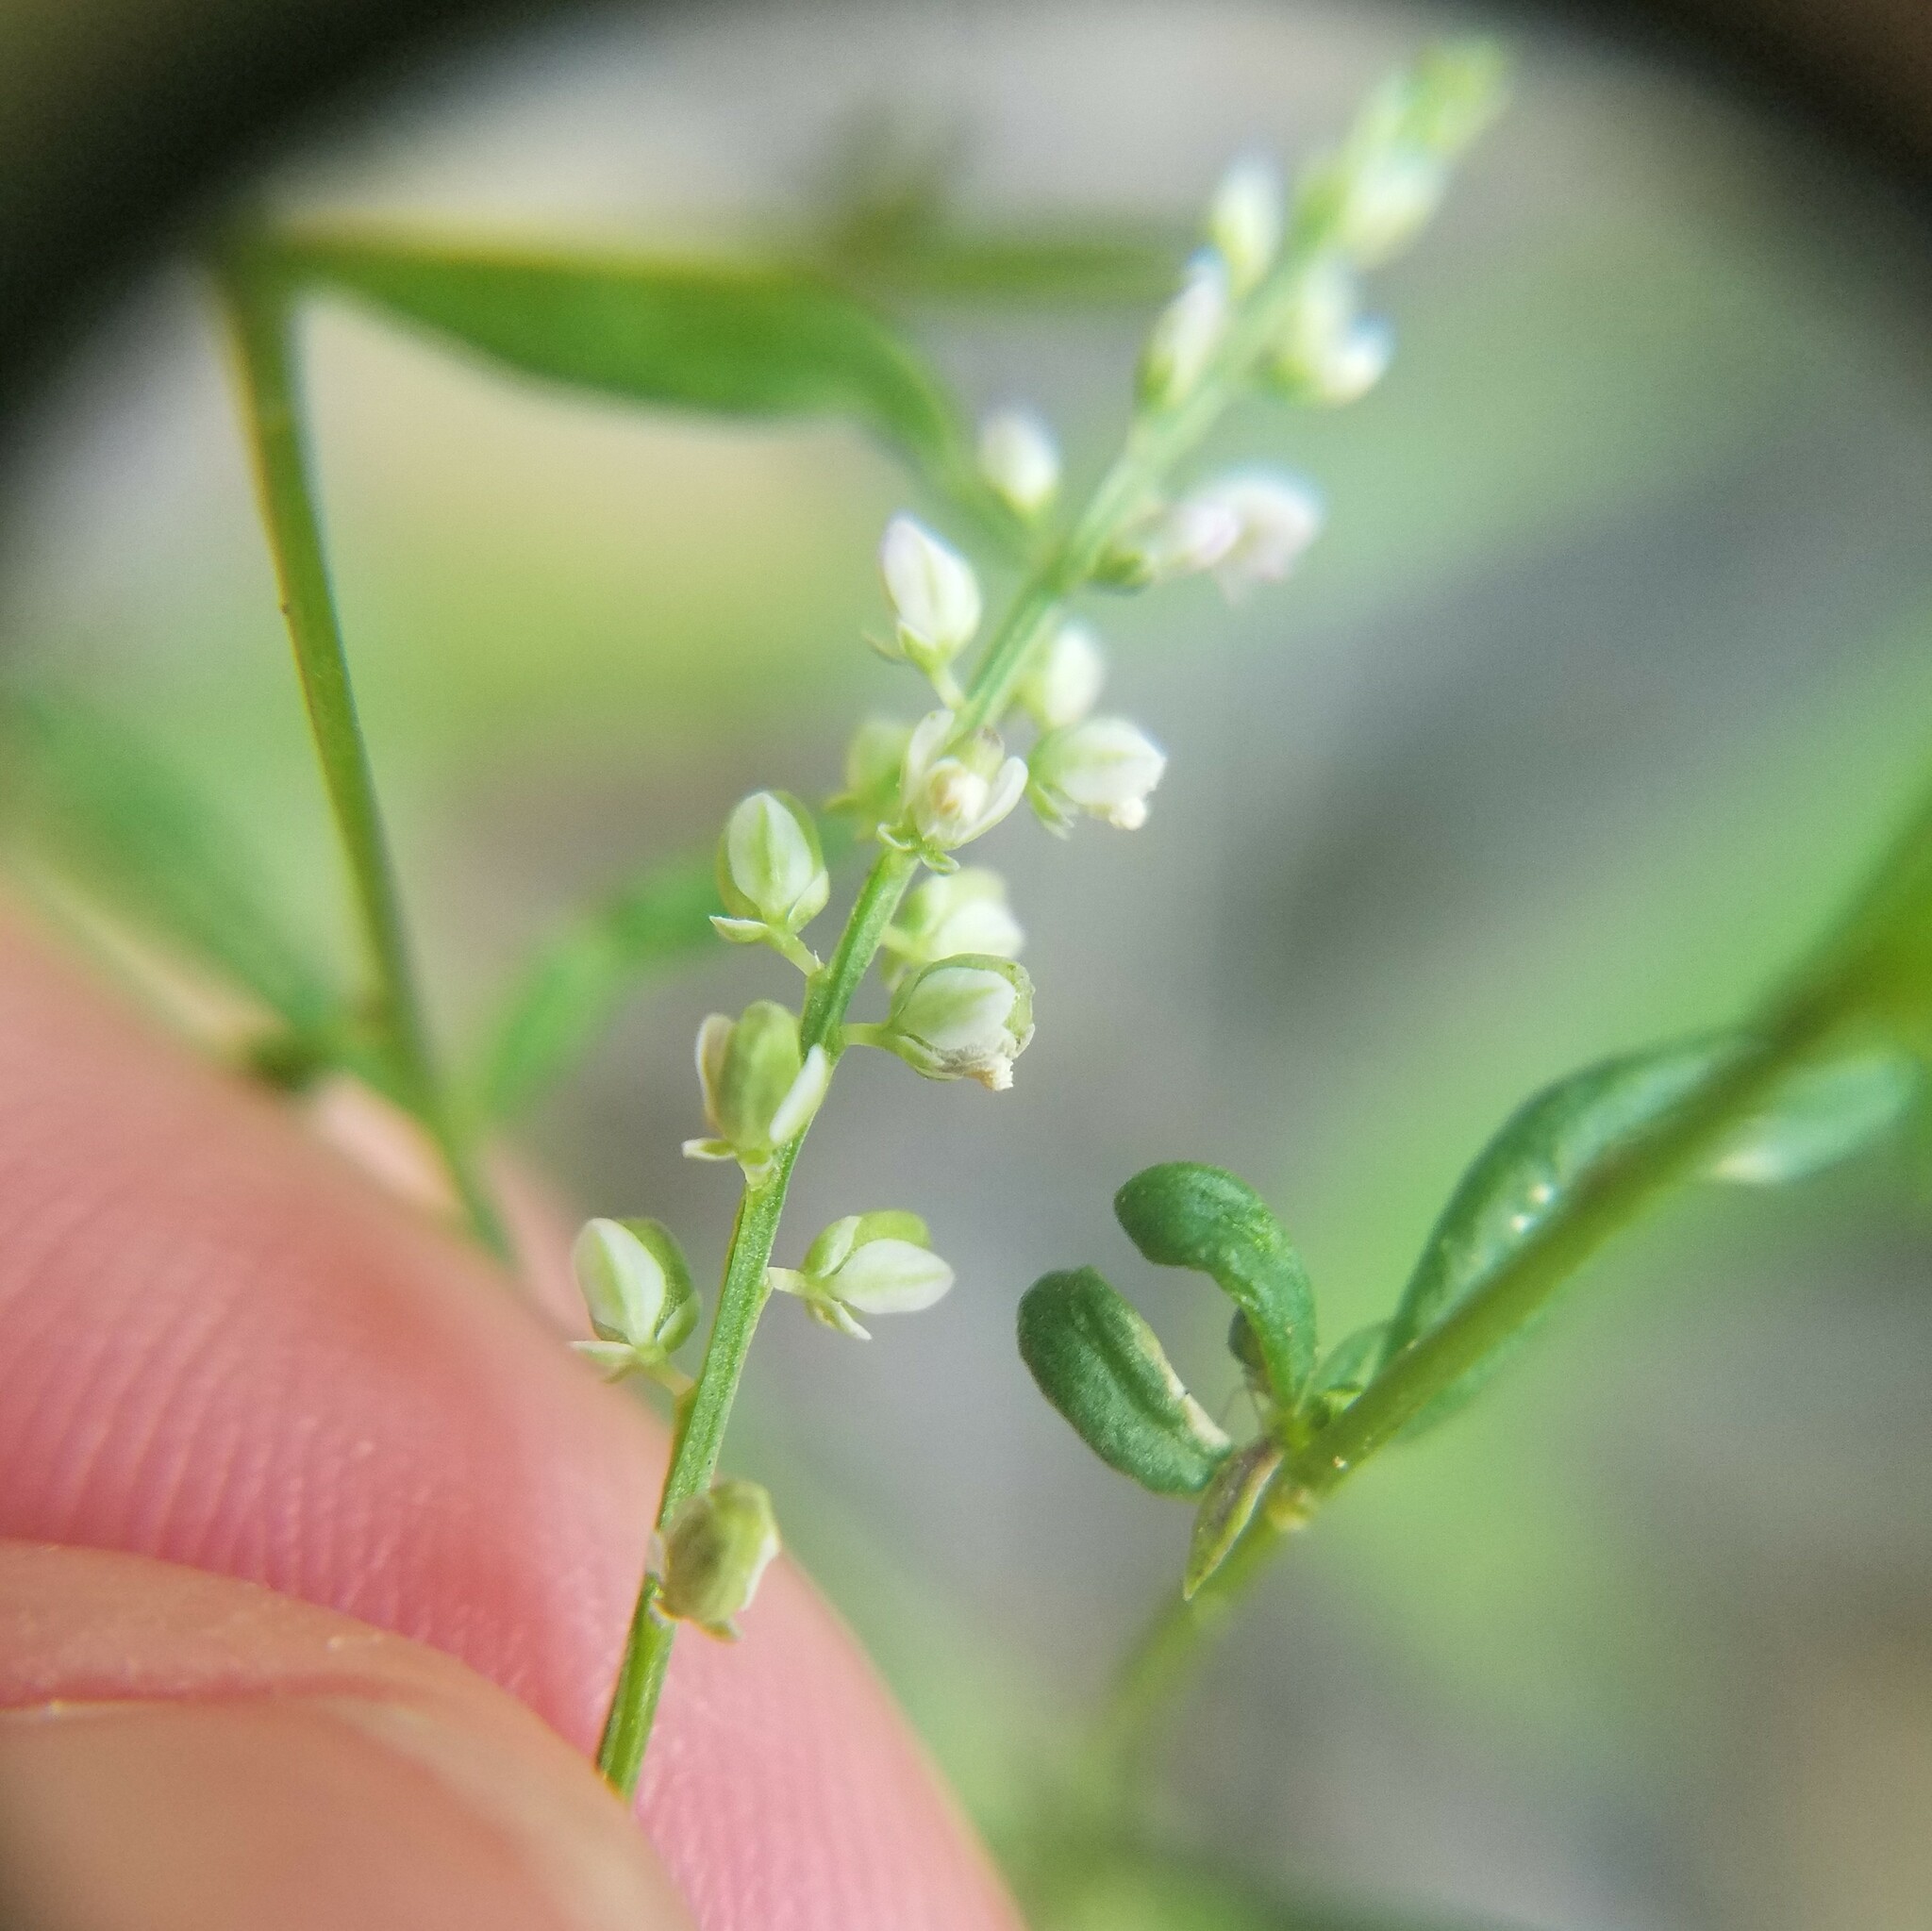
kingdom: Plantae
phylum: Tracheophyta
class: Magnoliopsida
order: Fabales
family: Polygalaceae
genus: Polygala
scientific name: Polygala verticillata
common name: Whorl milkwort
